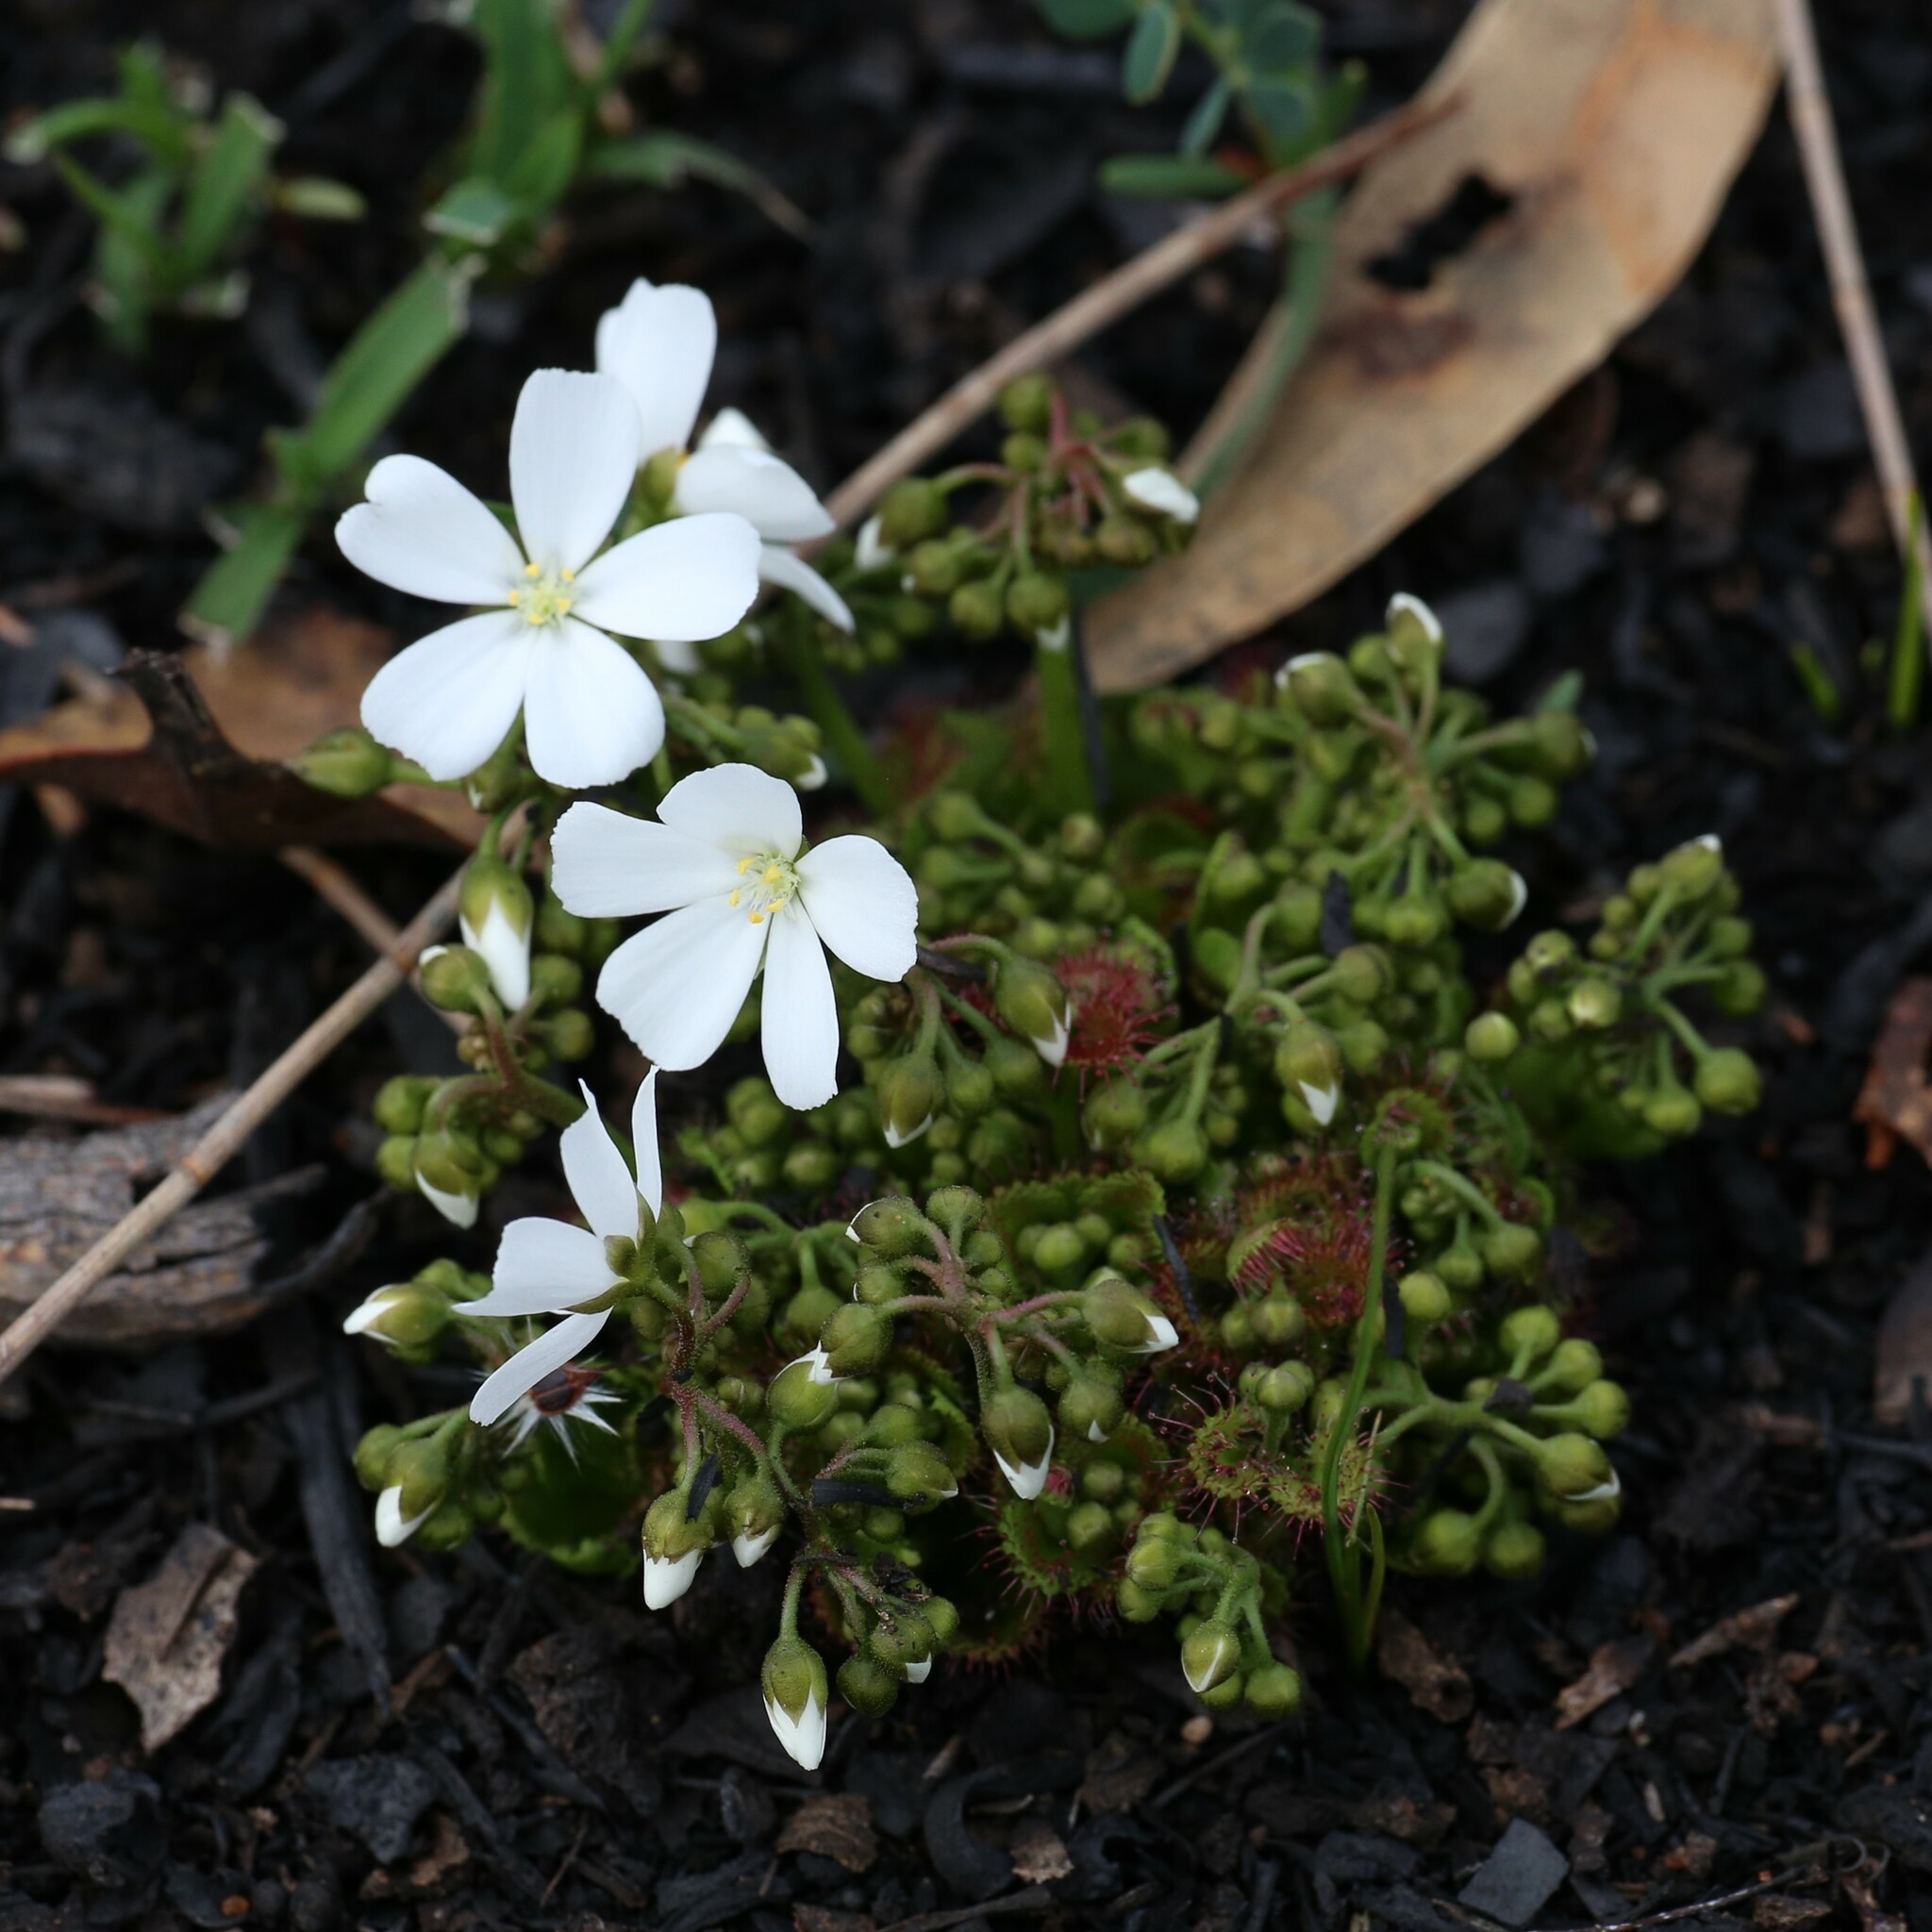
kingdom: Plantae
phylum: Tracheophyta
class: Magnoliopsida
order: Caryophyllales
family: Droseraceae
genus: Drosera
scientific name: Drosera stolonifera
